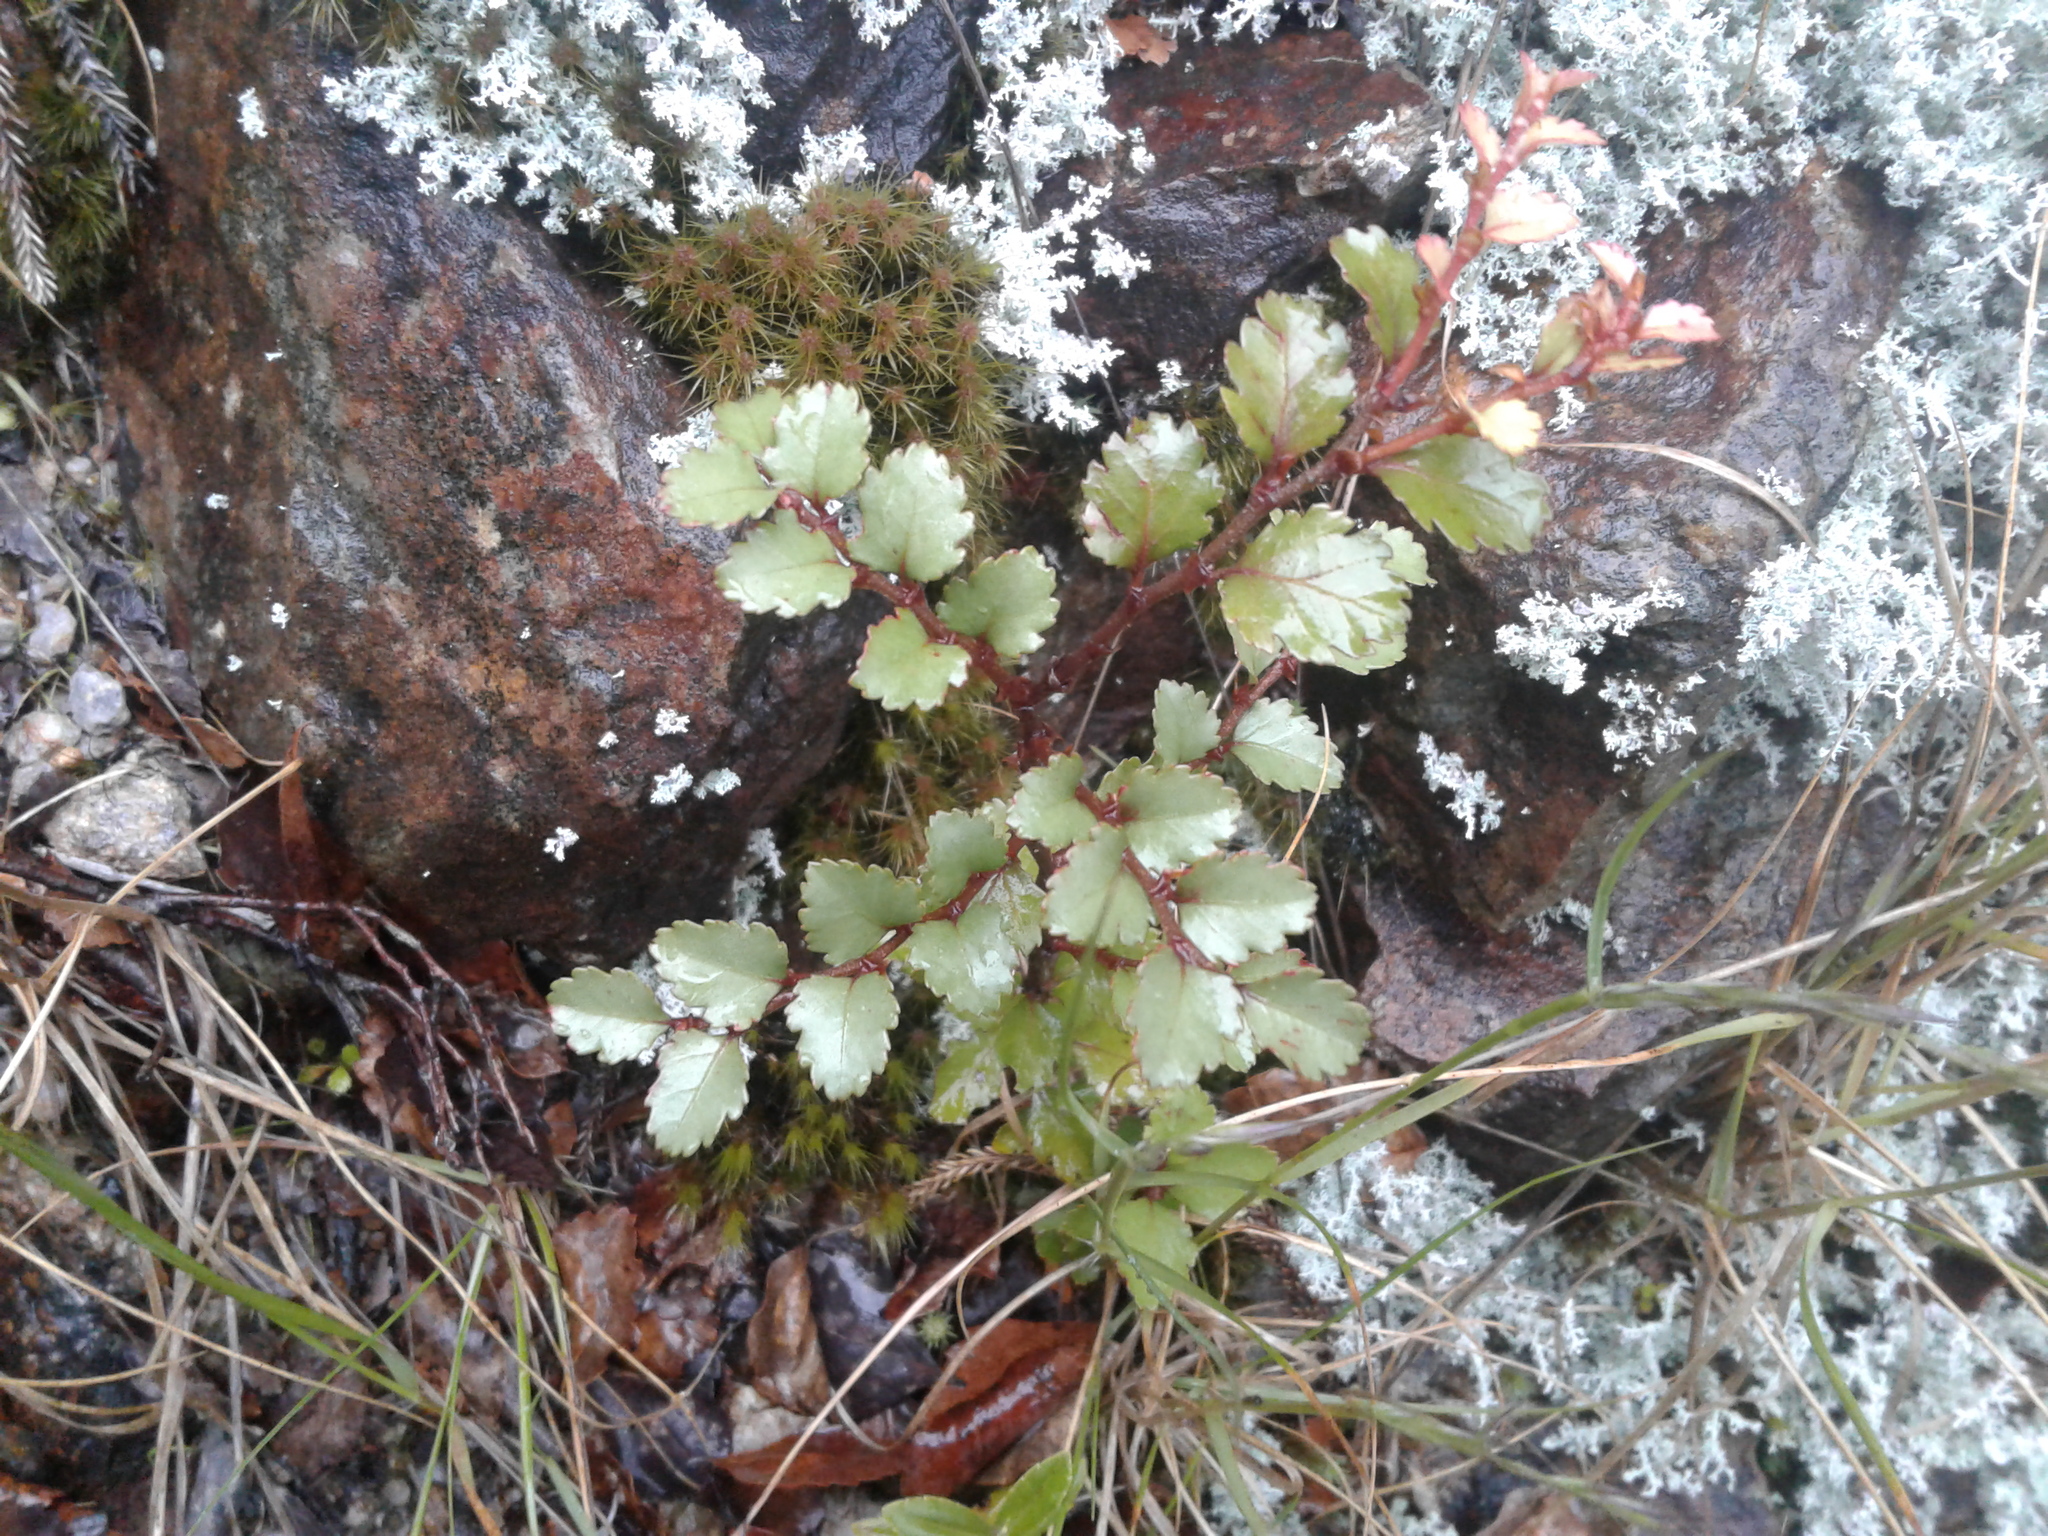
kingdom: Plantae
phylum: Tracheophyta
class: Magnoliopsida
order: Fagales
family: Nothofagaceae
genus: Nothofagus
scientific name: Nothofagus menziesii
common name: Silver beech
